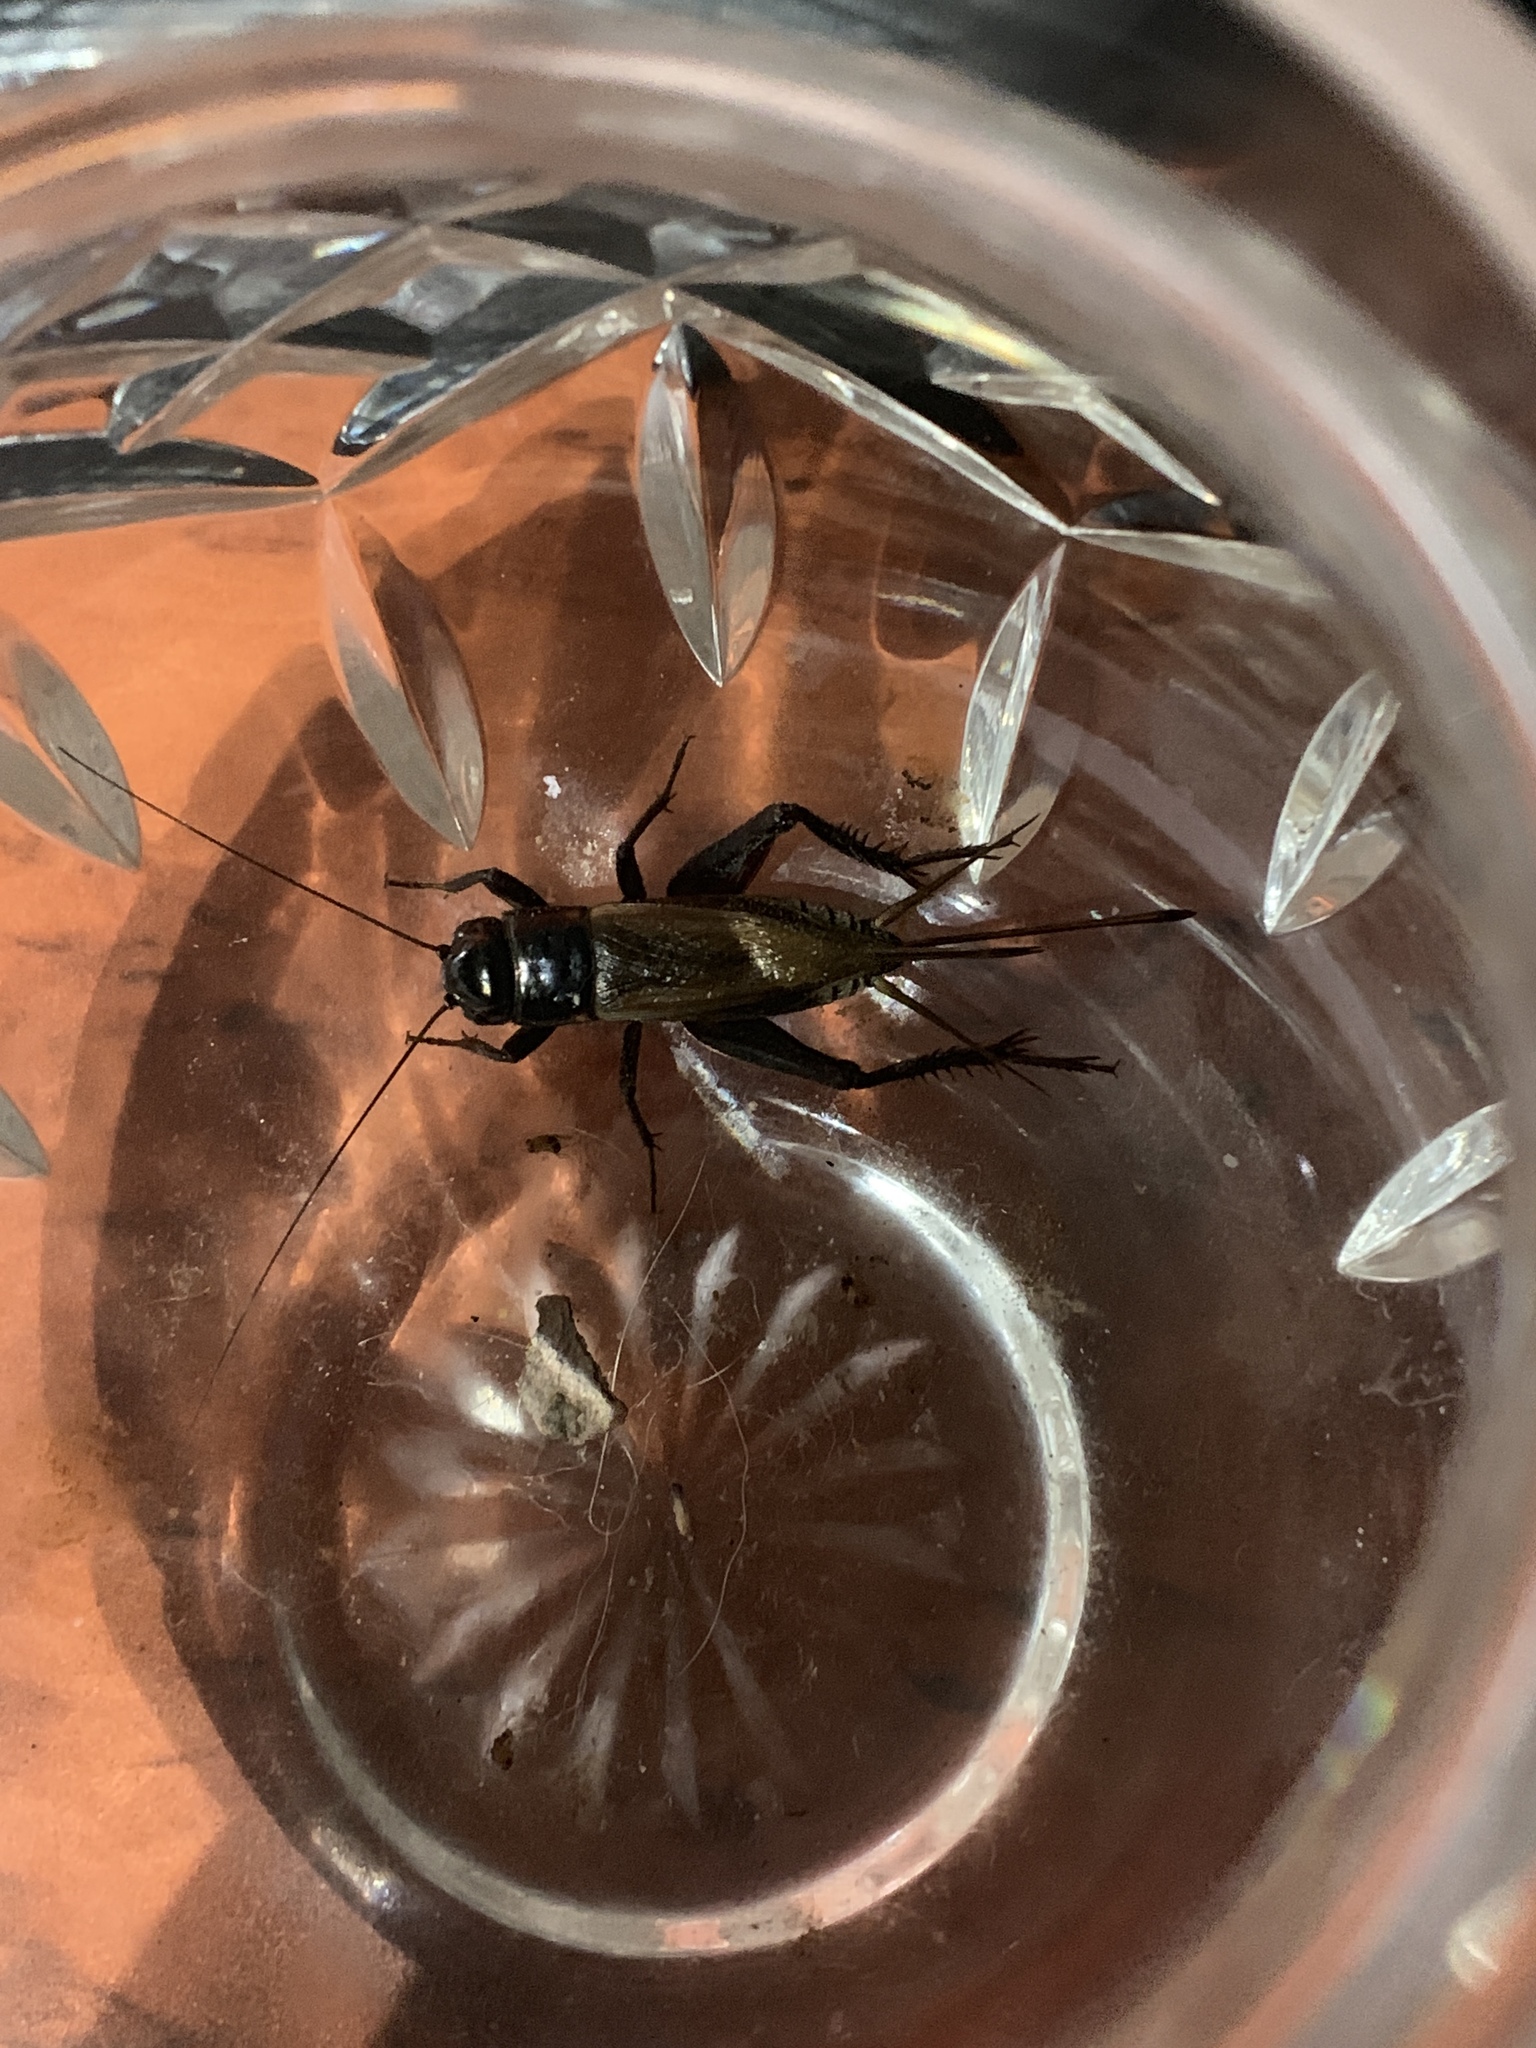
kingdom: Animalia
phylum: Arthropoda
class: Insecta
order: Orthoptera
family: Gryllidae
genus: Teleogryllus
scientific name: Teleogryllus commodus
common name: Black field cricket
